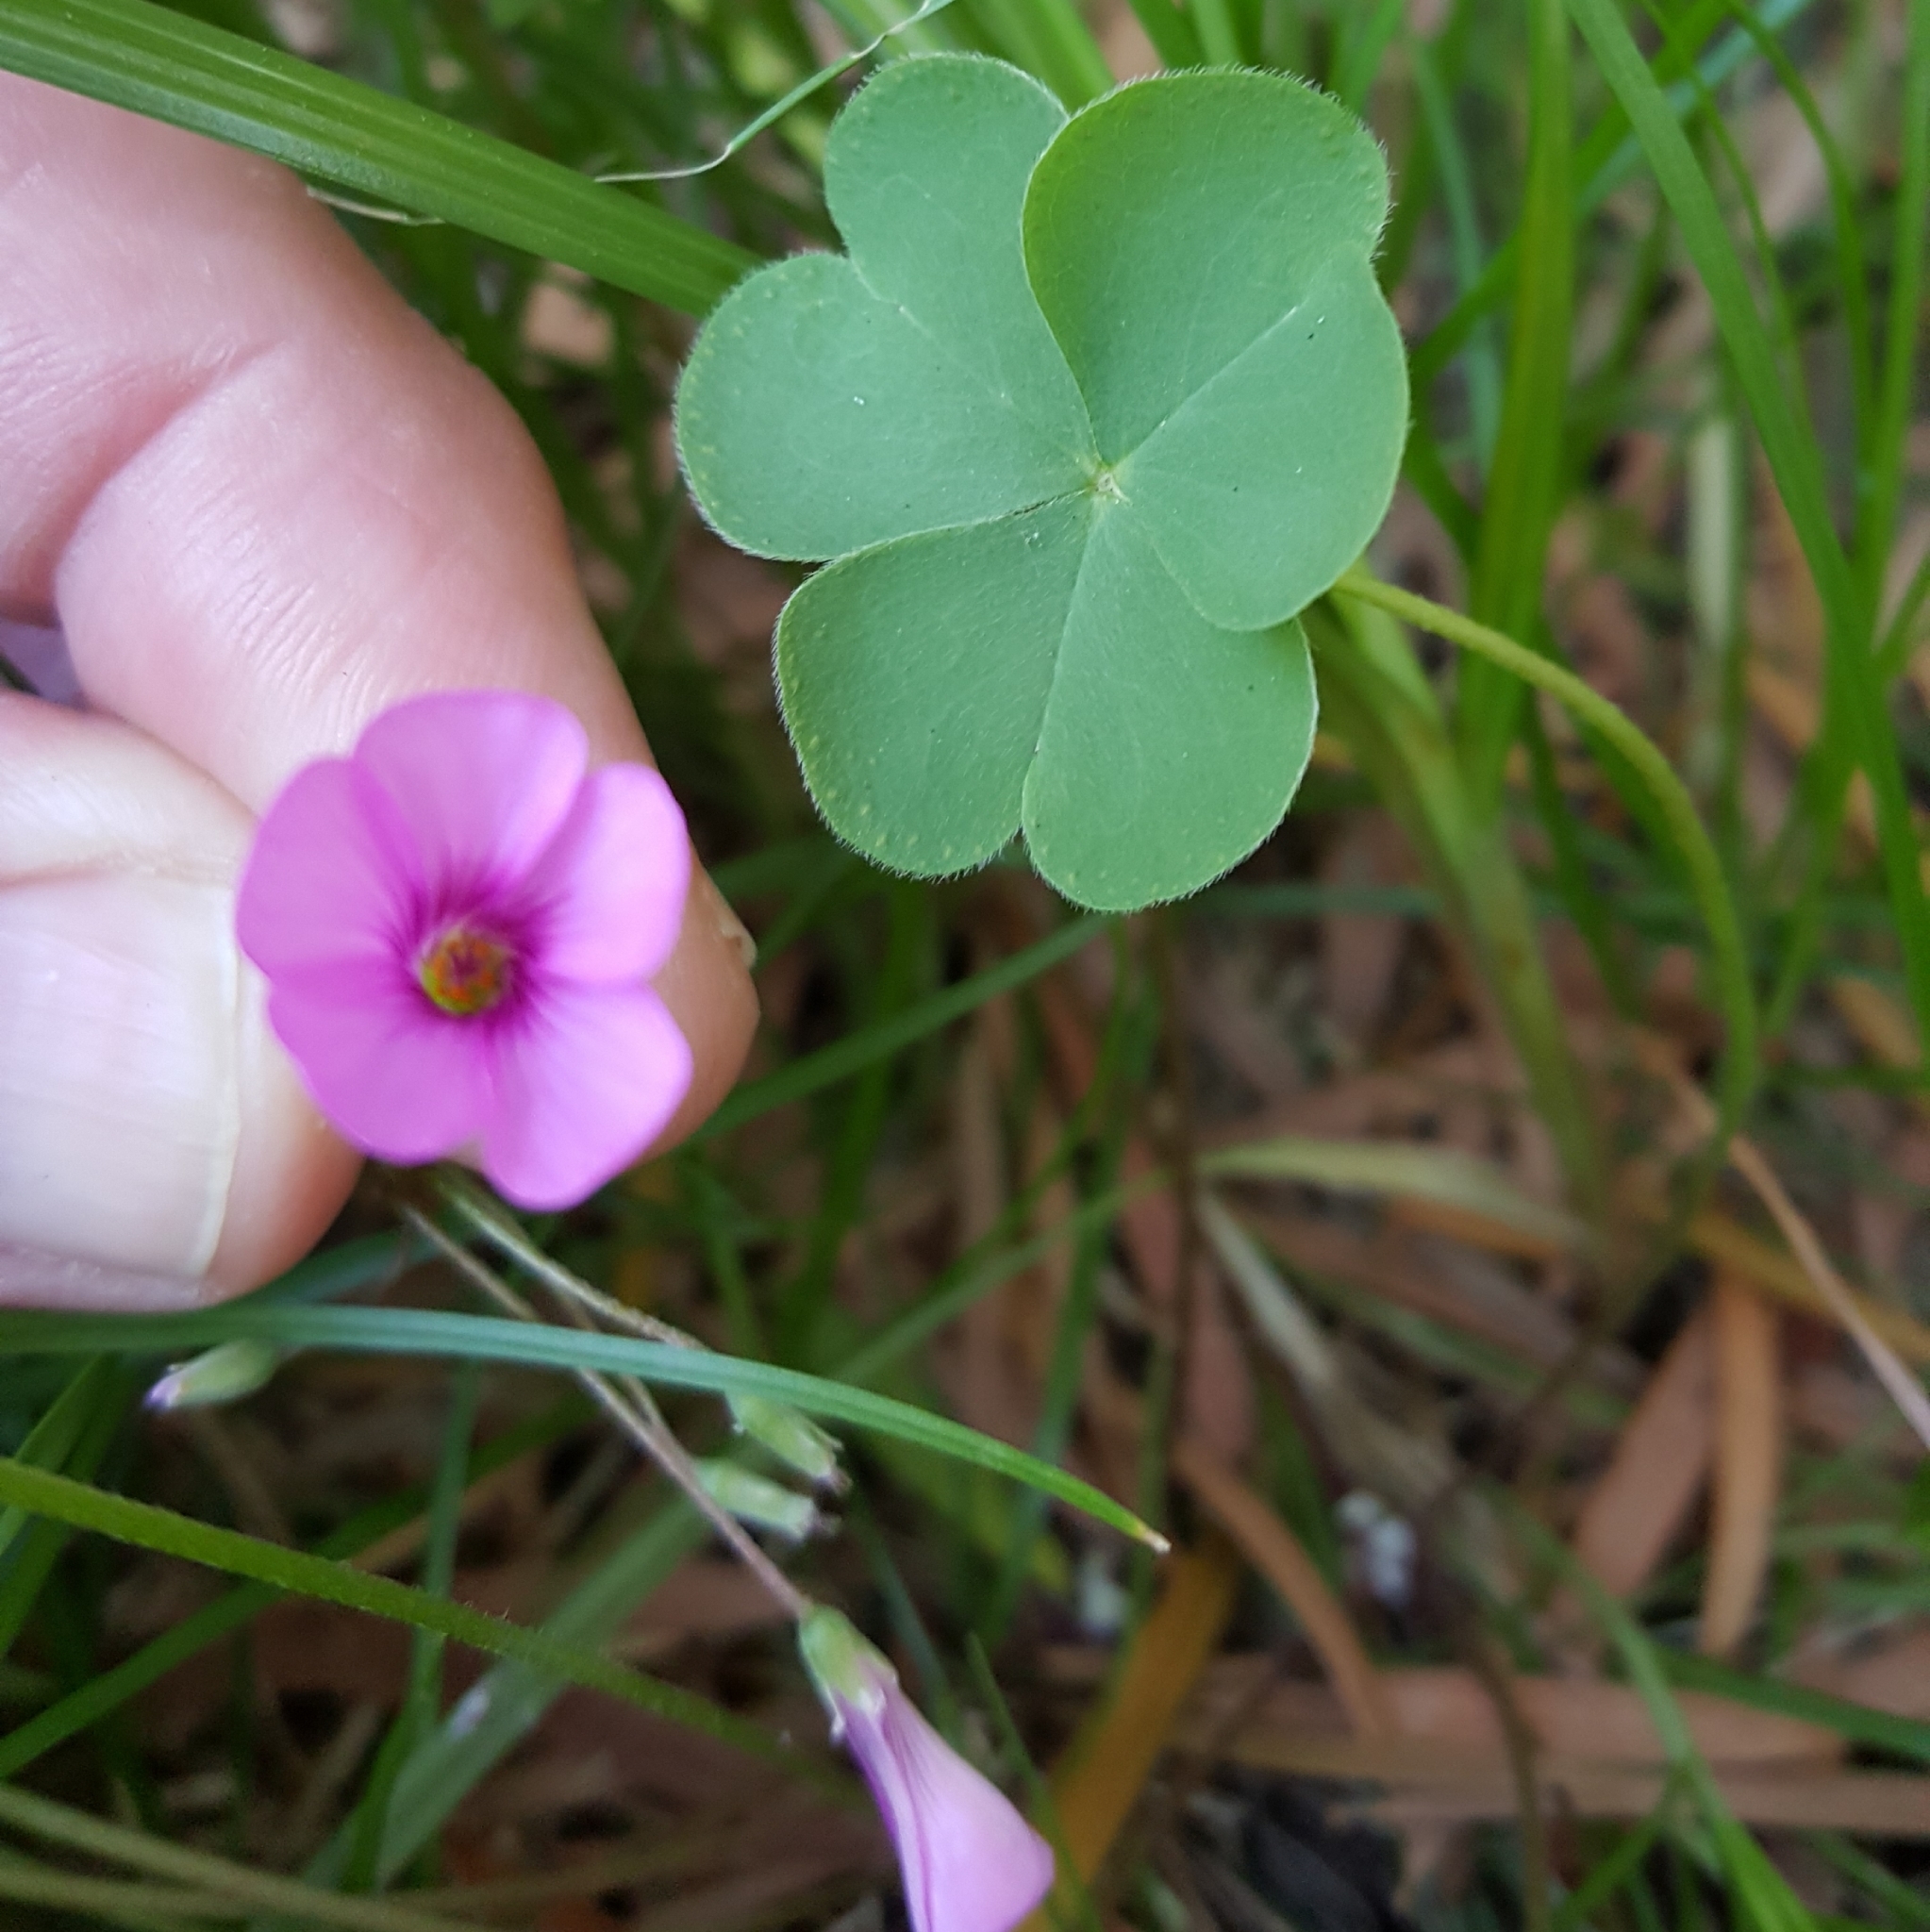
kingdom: Plantae
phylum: Tracheophyta
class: Magnoliopsida
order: Oxalidales
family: Oxalidaceae
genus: Oxalis
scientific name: Oxalis articulata
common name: Pink-sorrel
